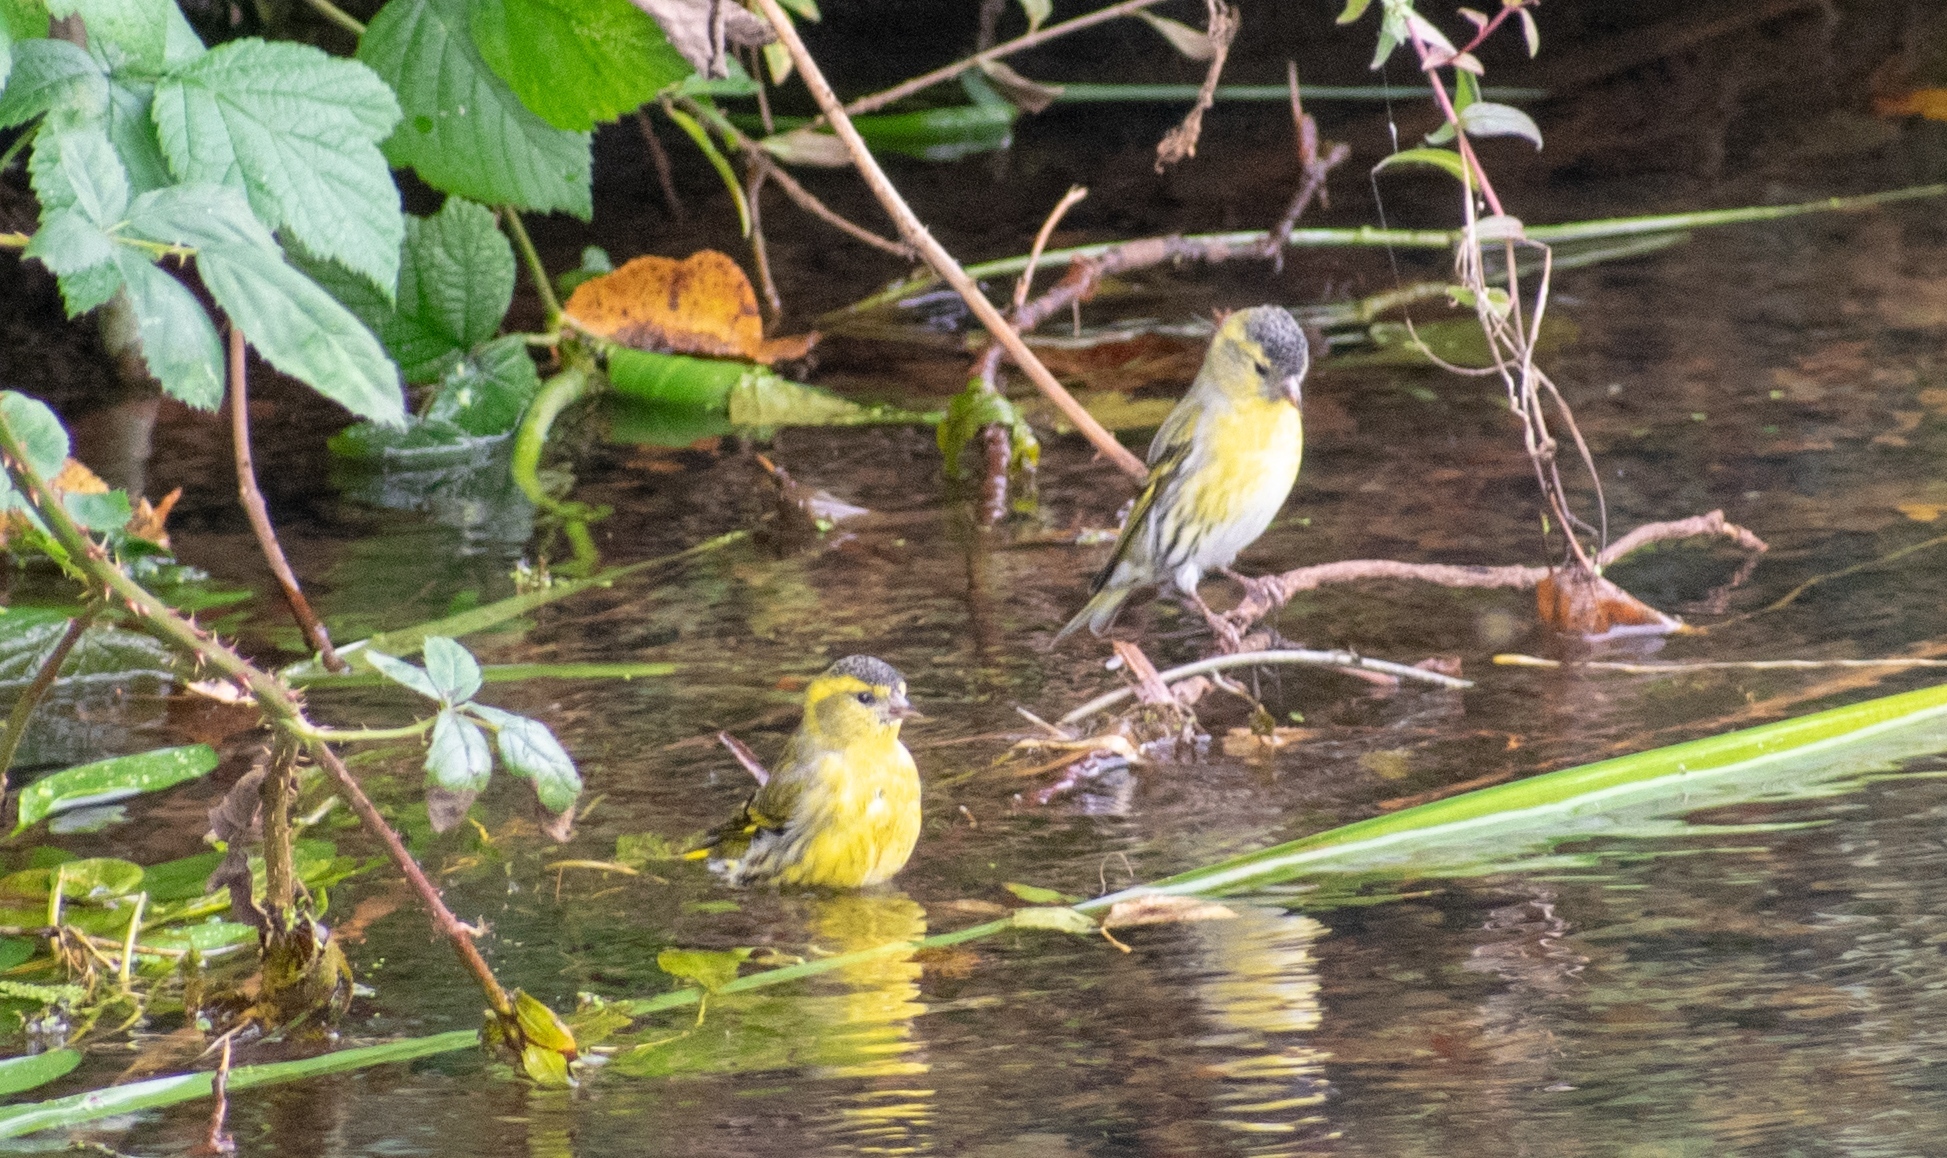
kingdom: Animalia
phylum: Chordata
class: Aves
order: Passeriformes
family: Fringillidae
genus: Spinus
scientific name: Spinus spinus
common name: Eurasian siskin
